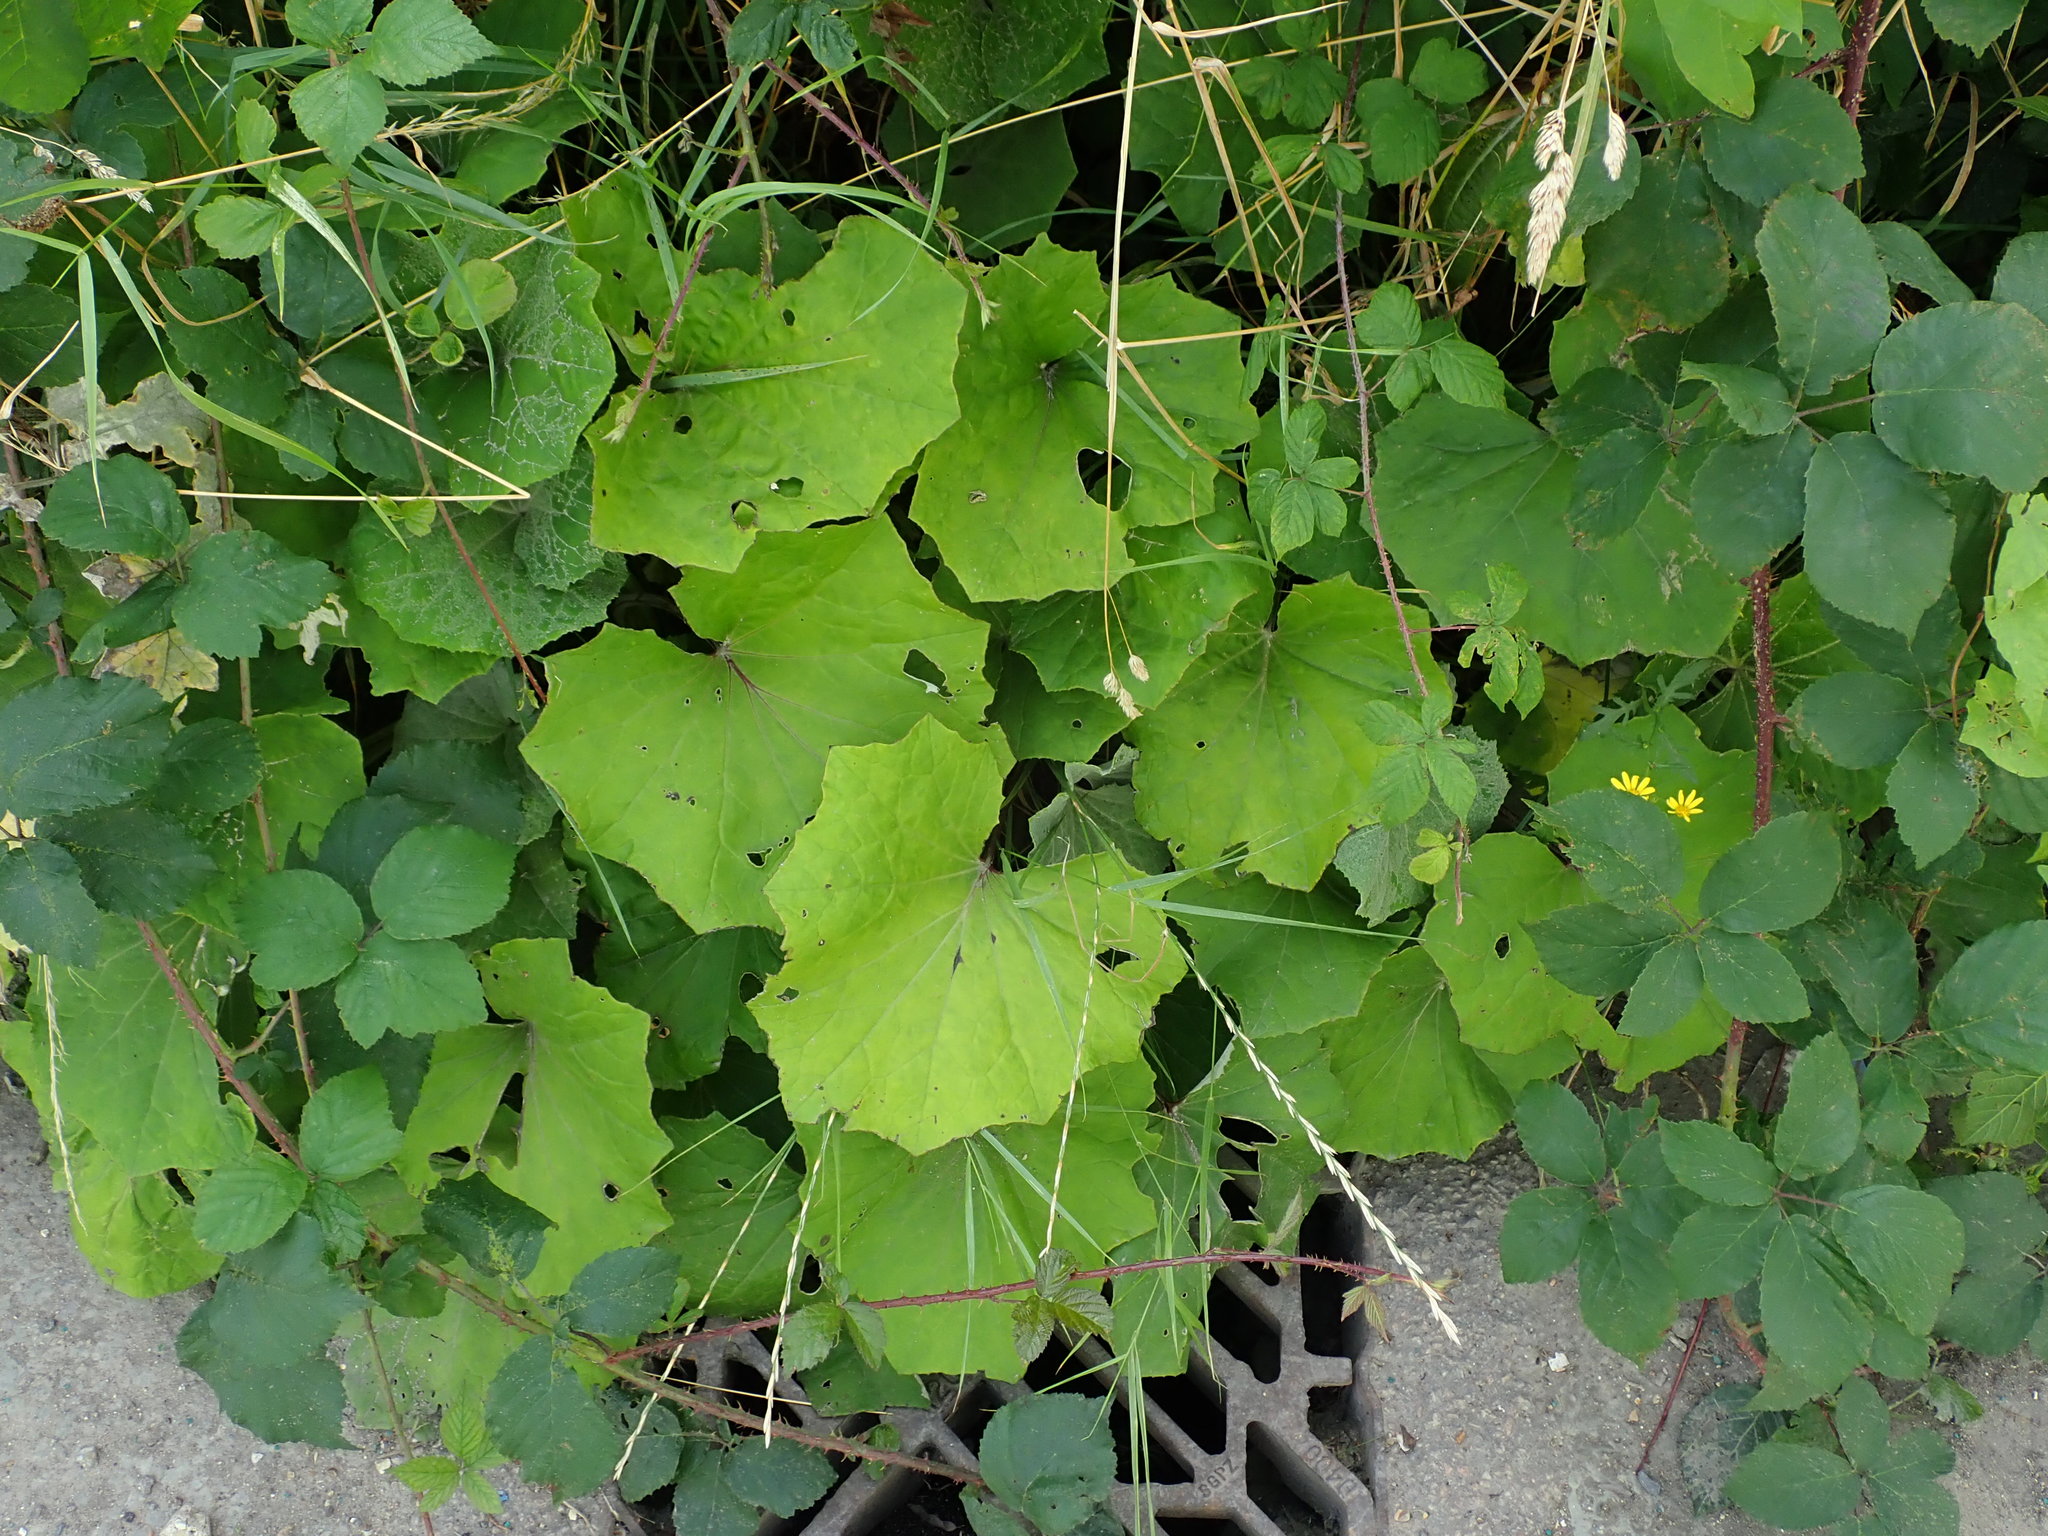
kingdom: Plantae
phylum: Tracheophyta
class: Magnoliopsida
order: Asterales
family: Asteraceae
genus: Tussilago
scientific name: Tussilago farfara
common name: Coltsfoot
